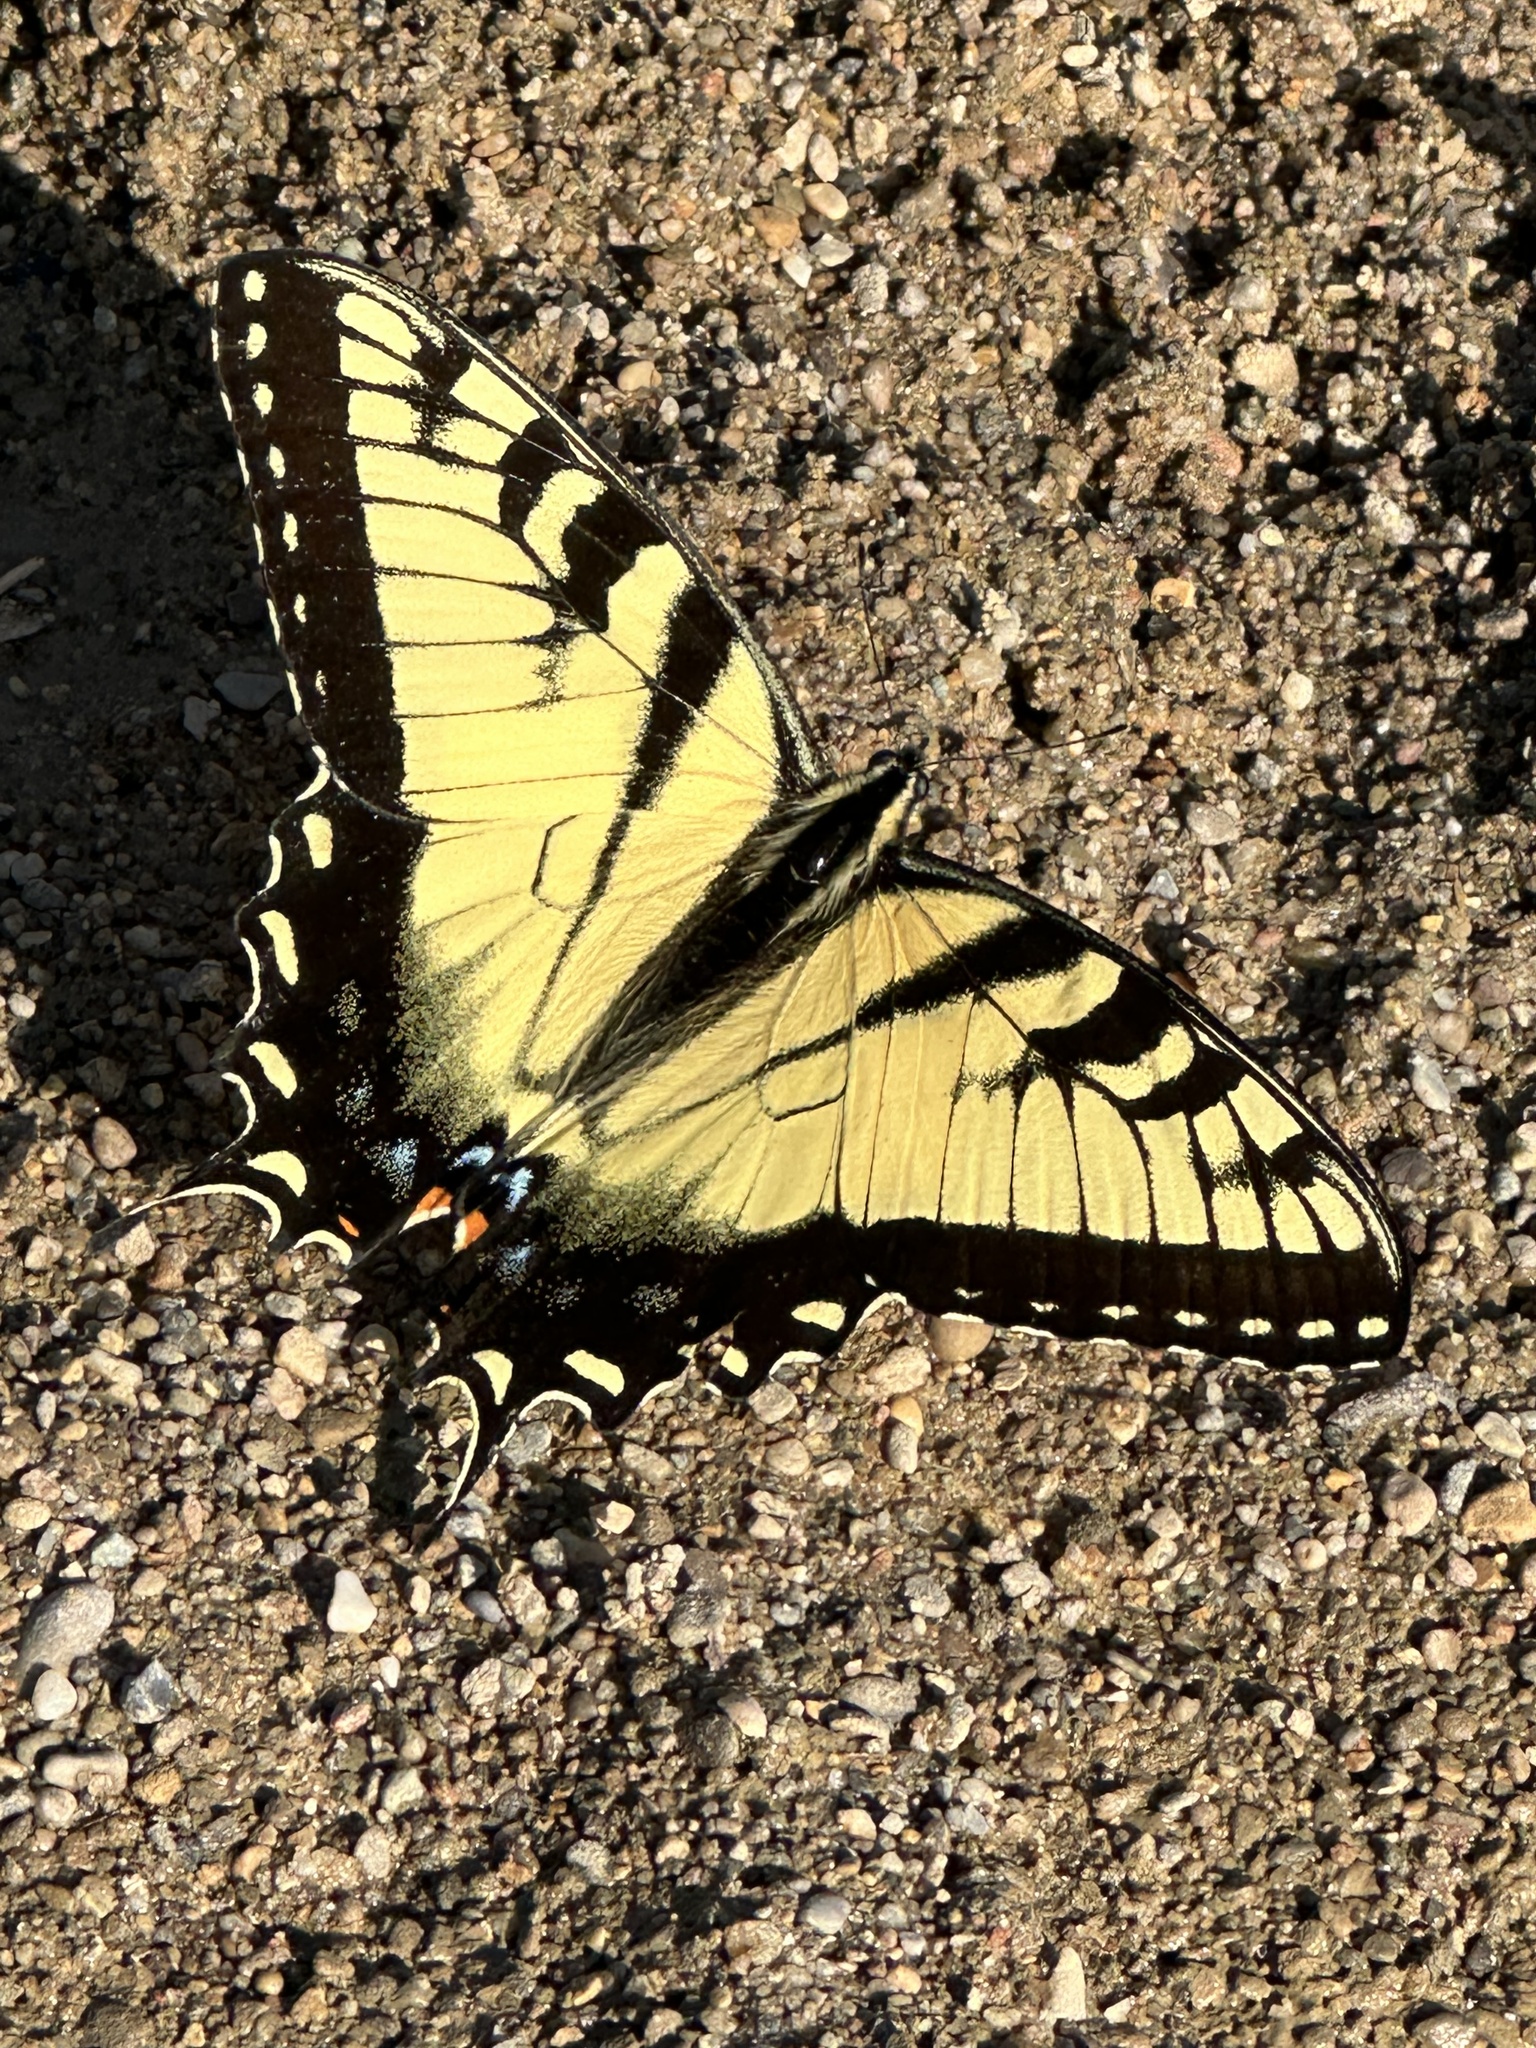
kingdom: Animalia
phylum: Arthropoda
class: Insecta
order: Lepidoptera
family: Papilionidae
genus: Papilio
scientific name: Papilio glaucus
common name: Tiger swallowtail
